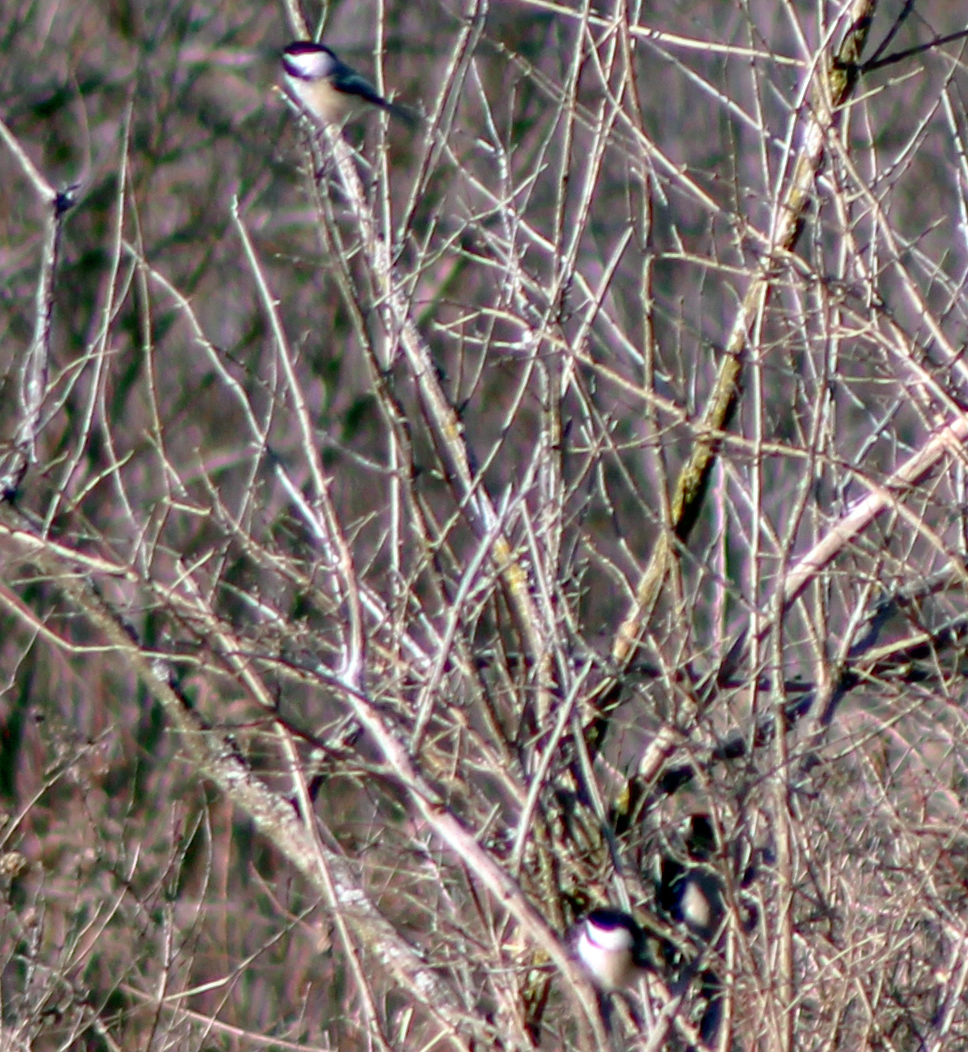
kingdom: Animalia
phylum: Chordata
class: Aves
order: Passeriformes
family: Paridae
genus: Poecile
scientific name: Poecile atricapillus
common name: Black-capped chickadee
